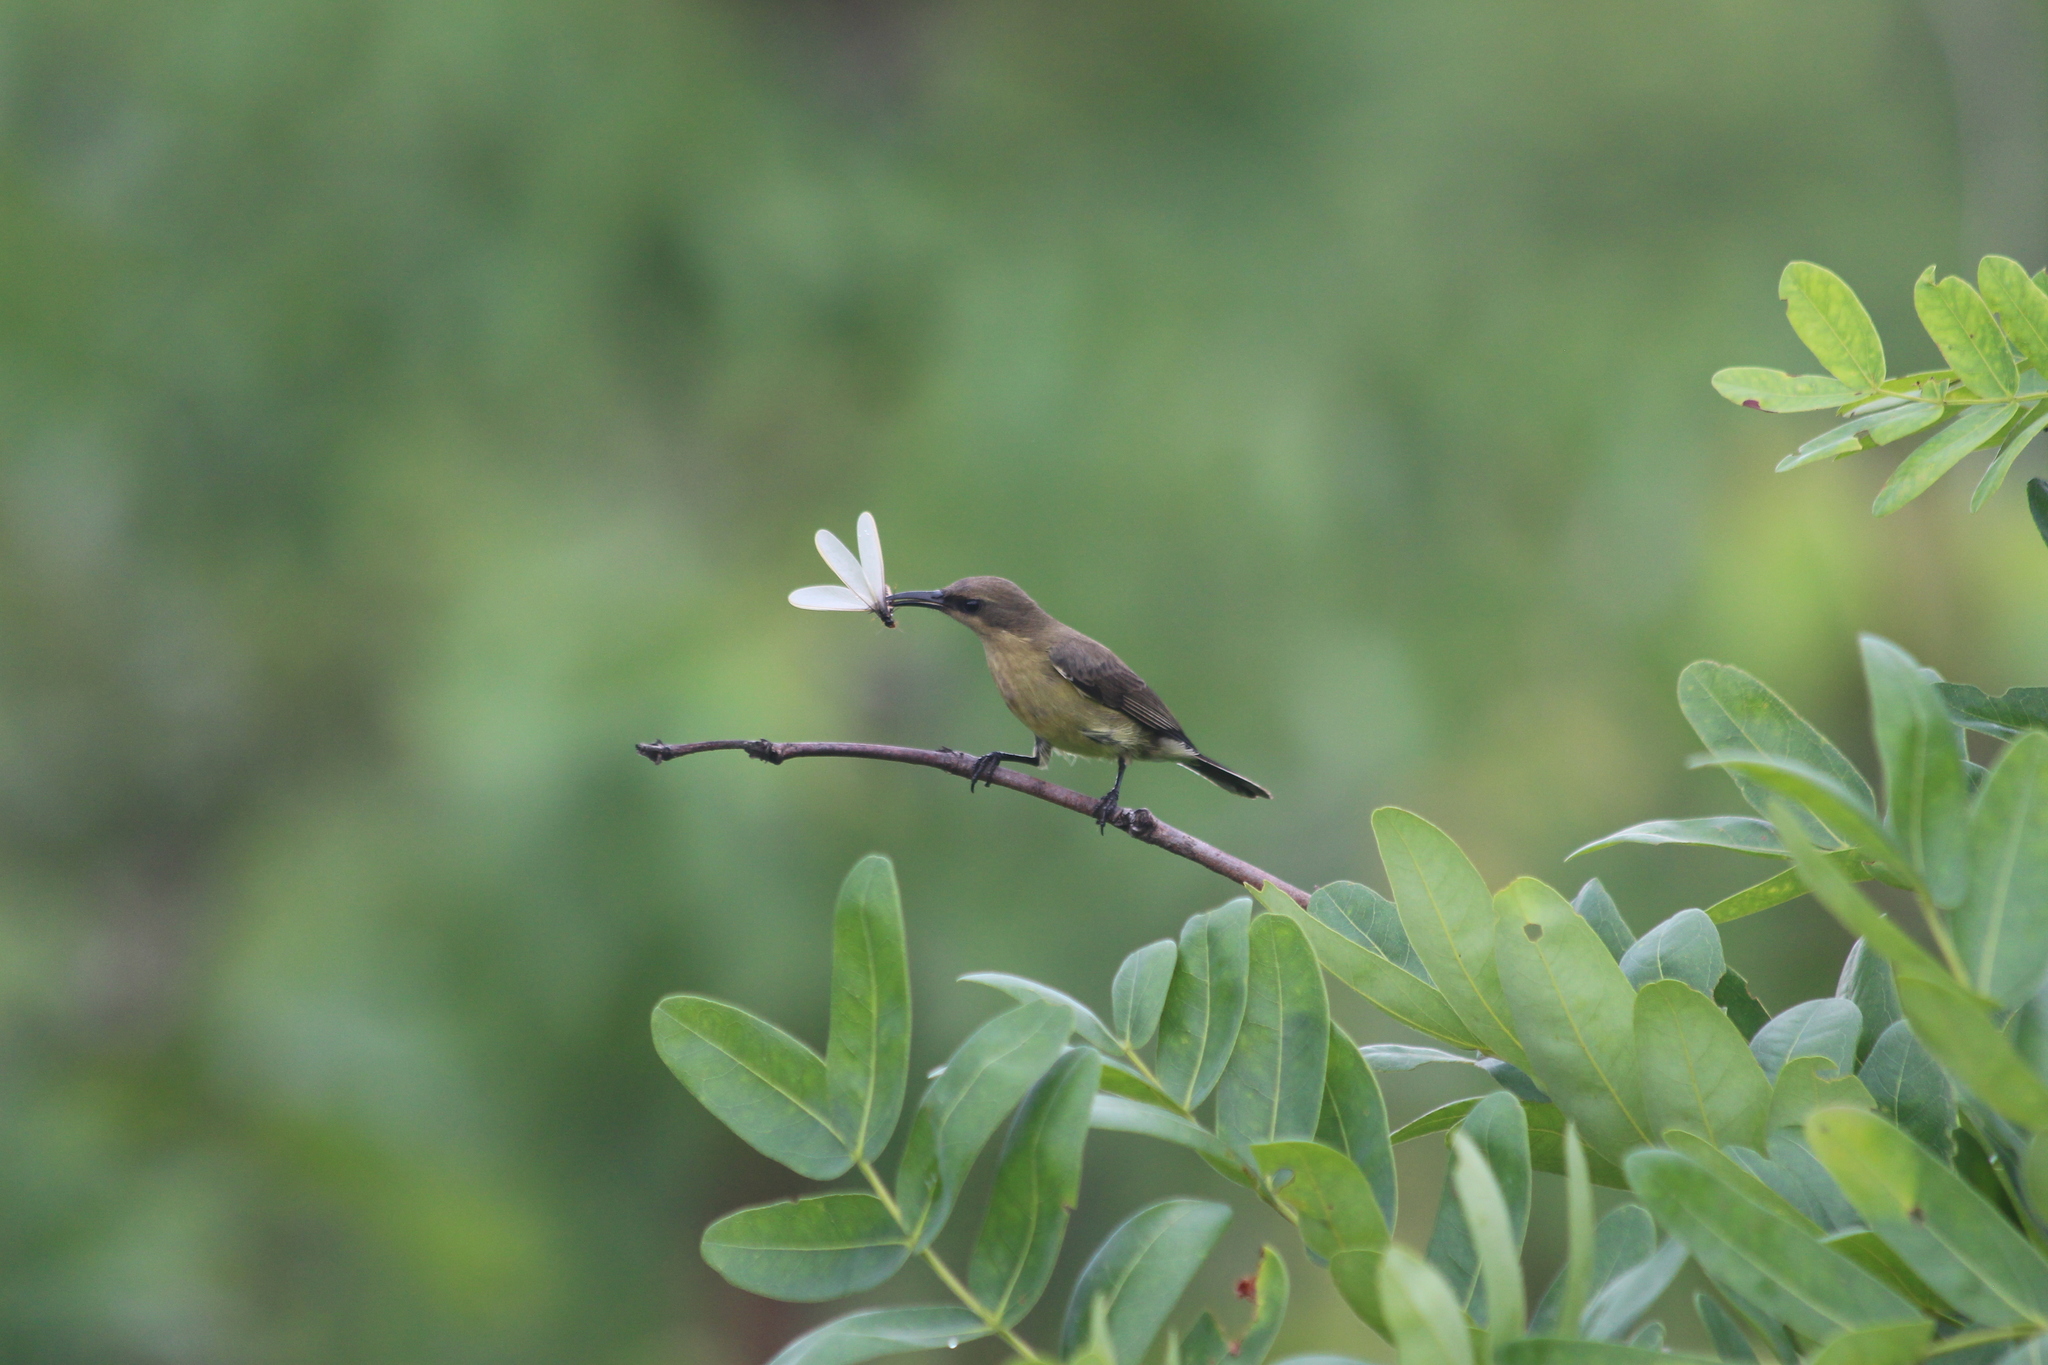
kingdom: Animalia
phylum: Chordata
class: Aves
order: Passeriformes
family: Nectariniidae
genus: Cinnyris
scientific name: Cinnyris cupreus
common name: Copper sunbird
